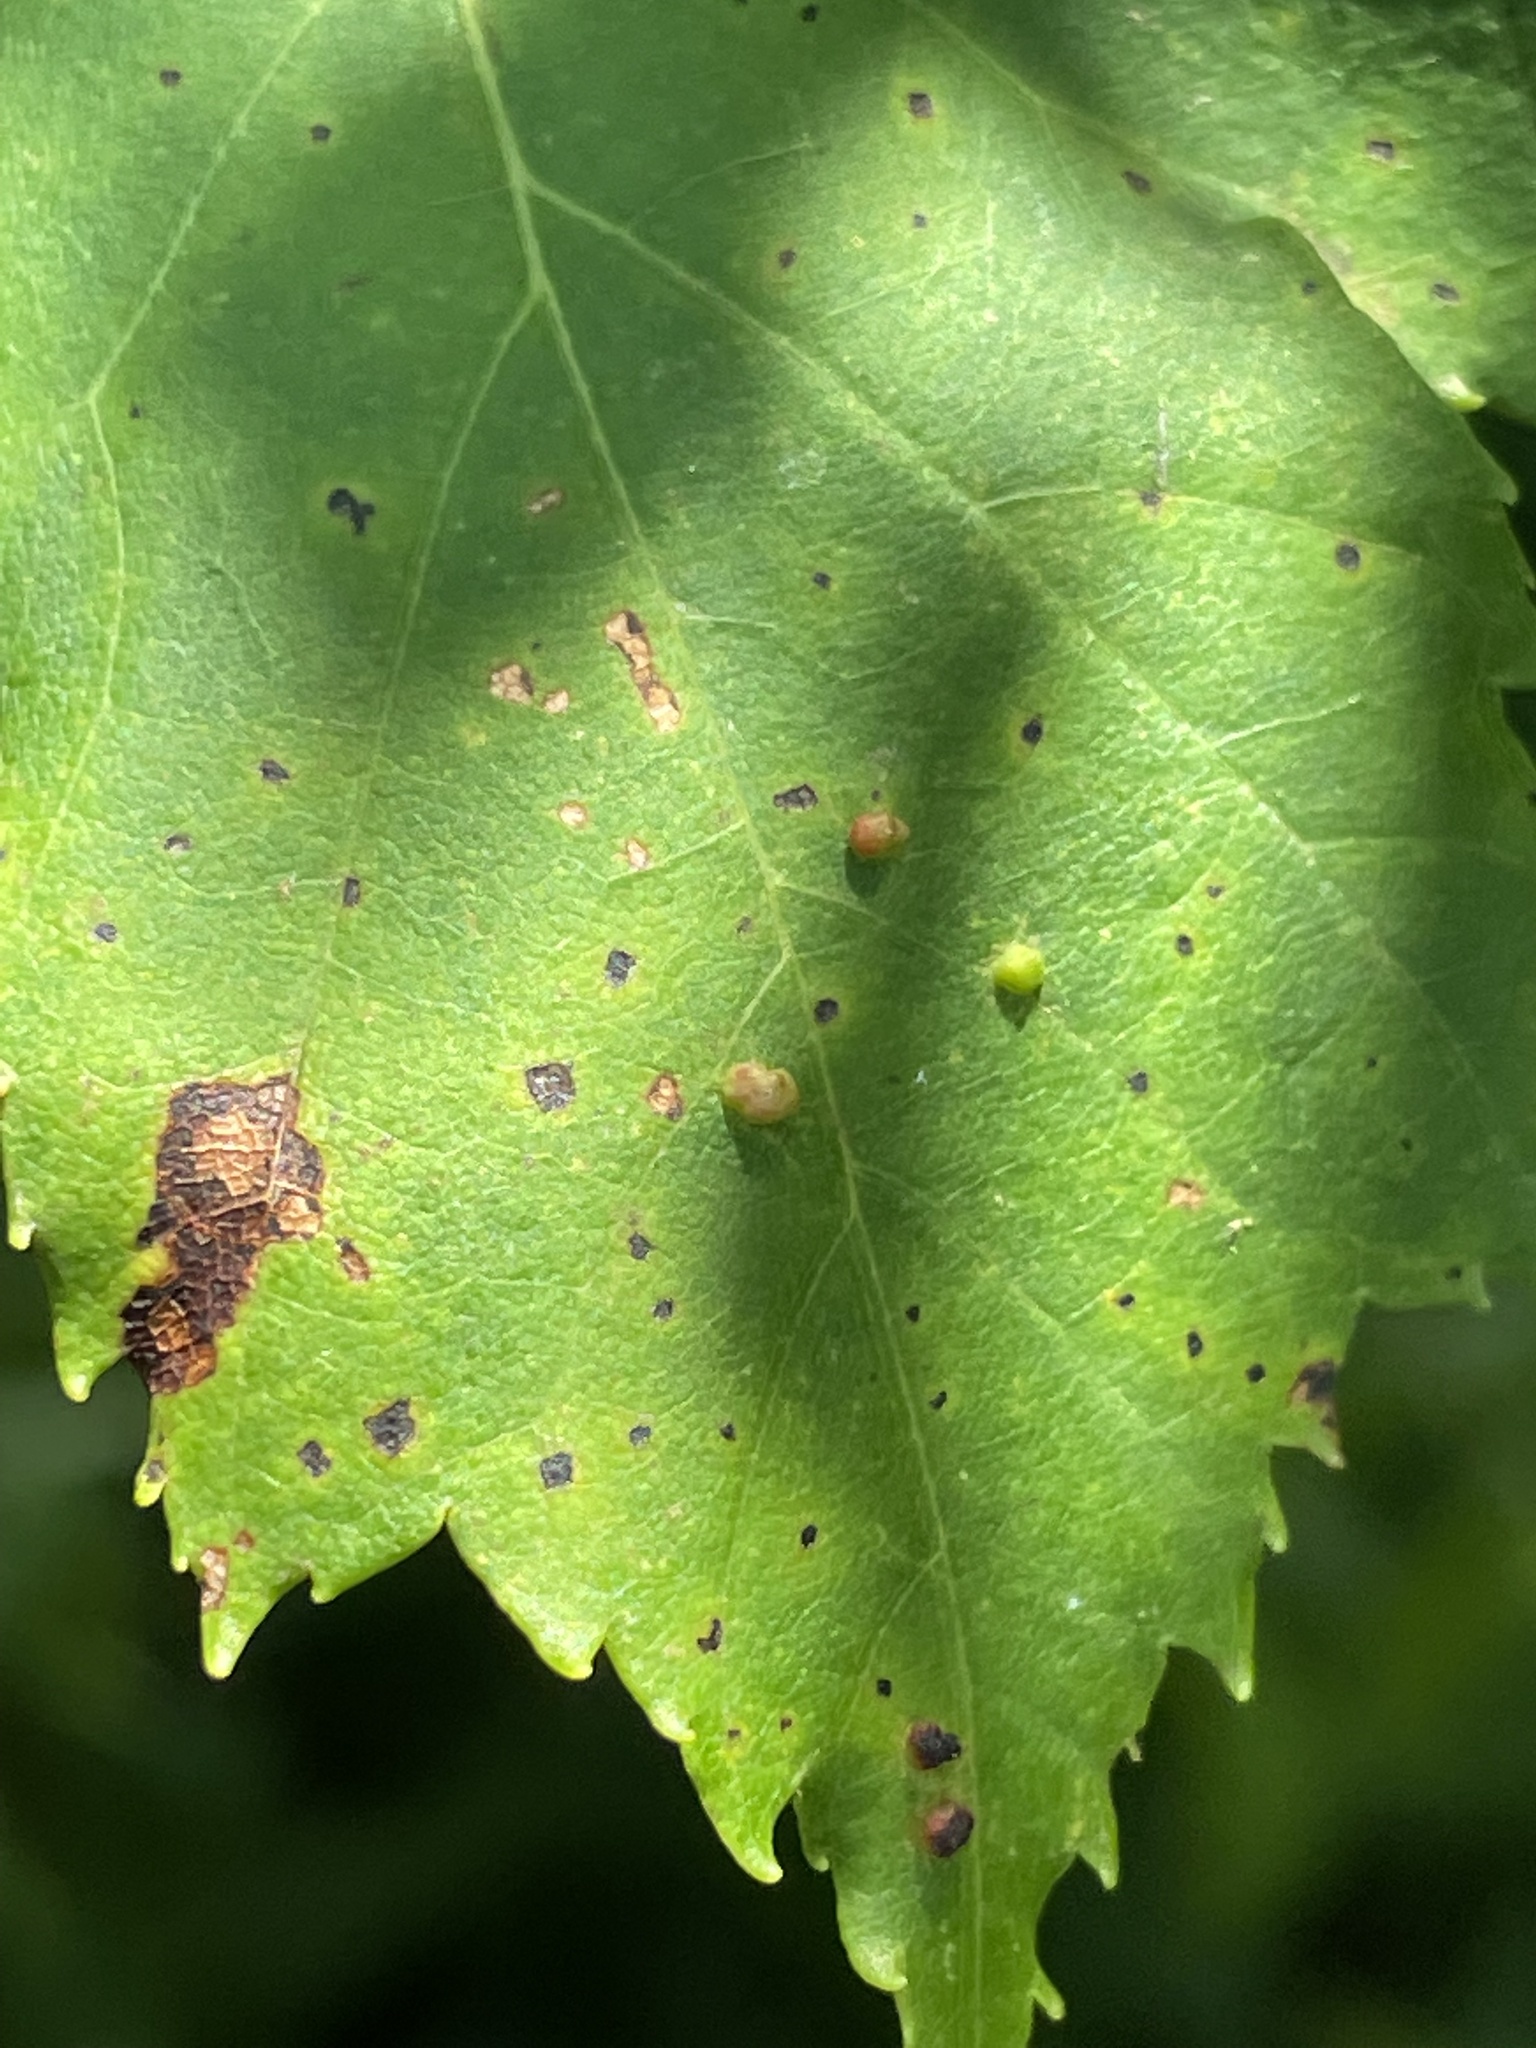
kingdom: Animalia
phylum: Arthropoda
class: Arachnida
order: Trombidiformes
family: Eriophyidae
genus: Vasates
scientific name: Vasates quadripedes
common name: Maple bladder gall mite
